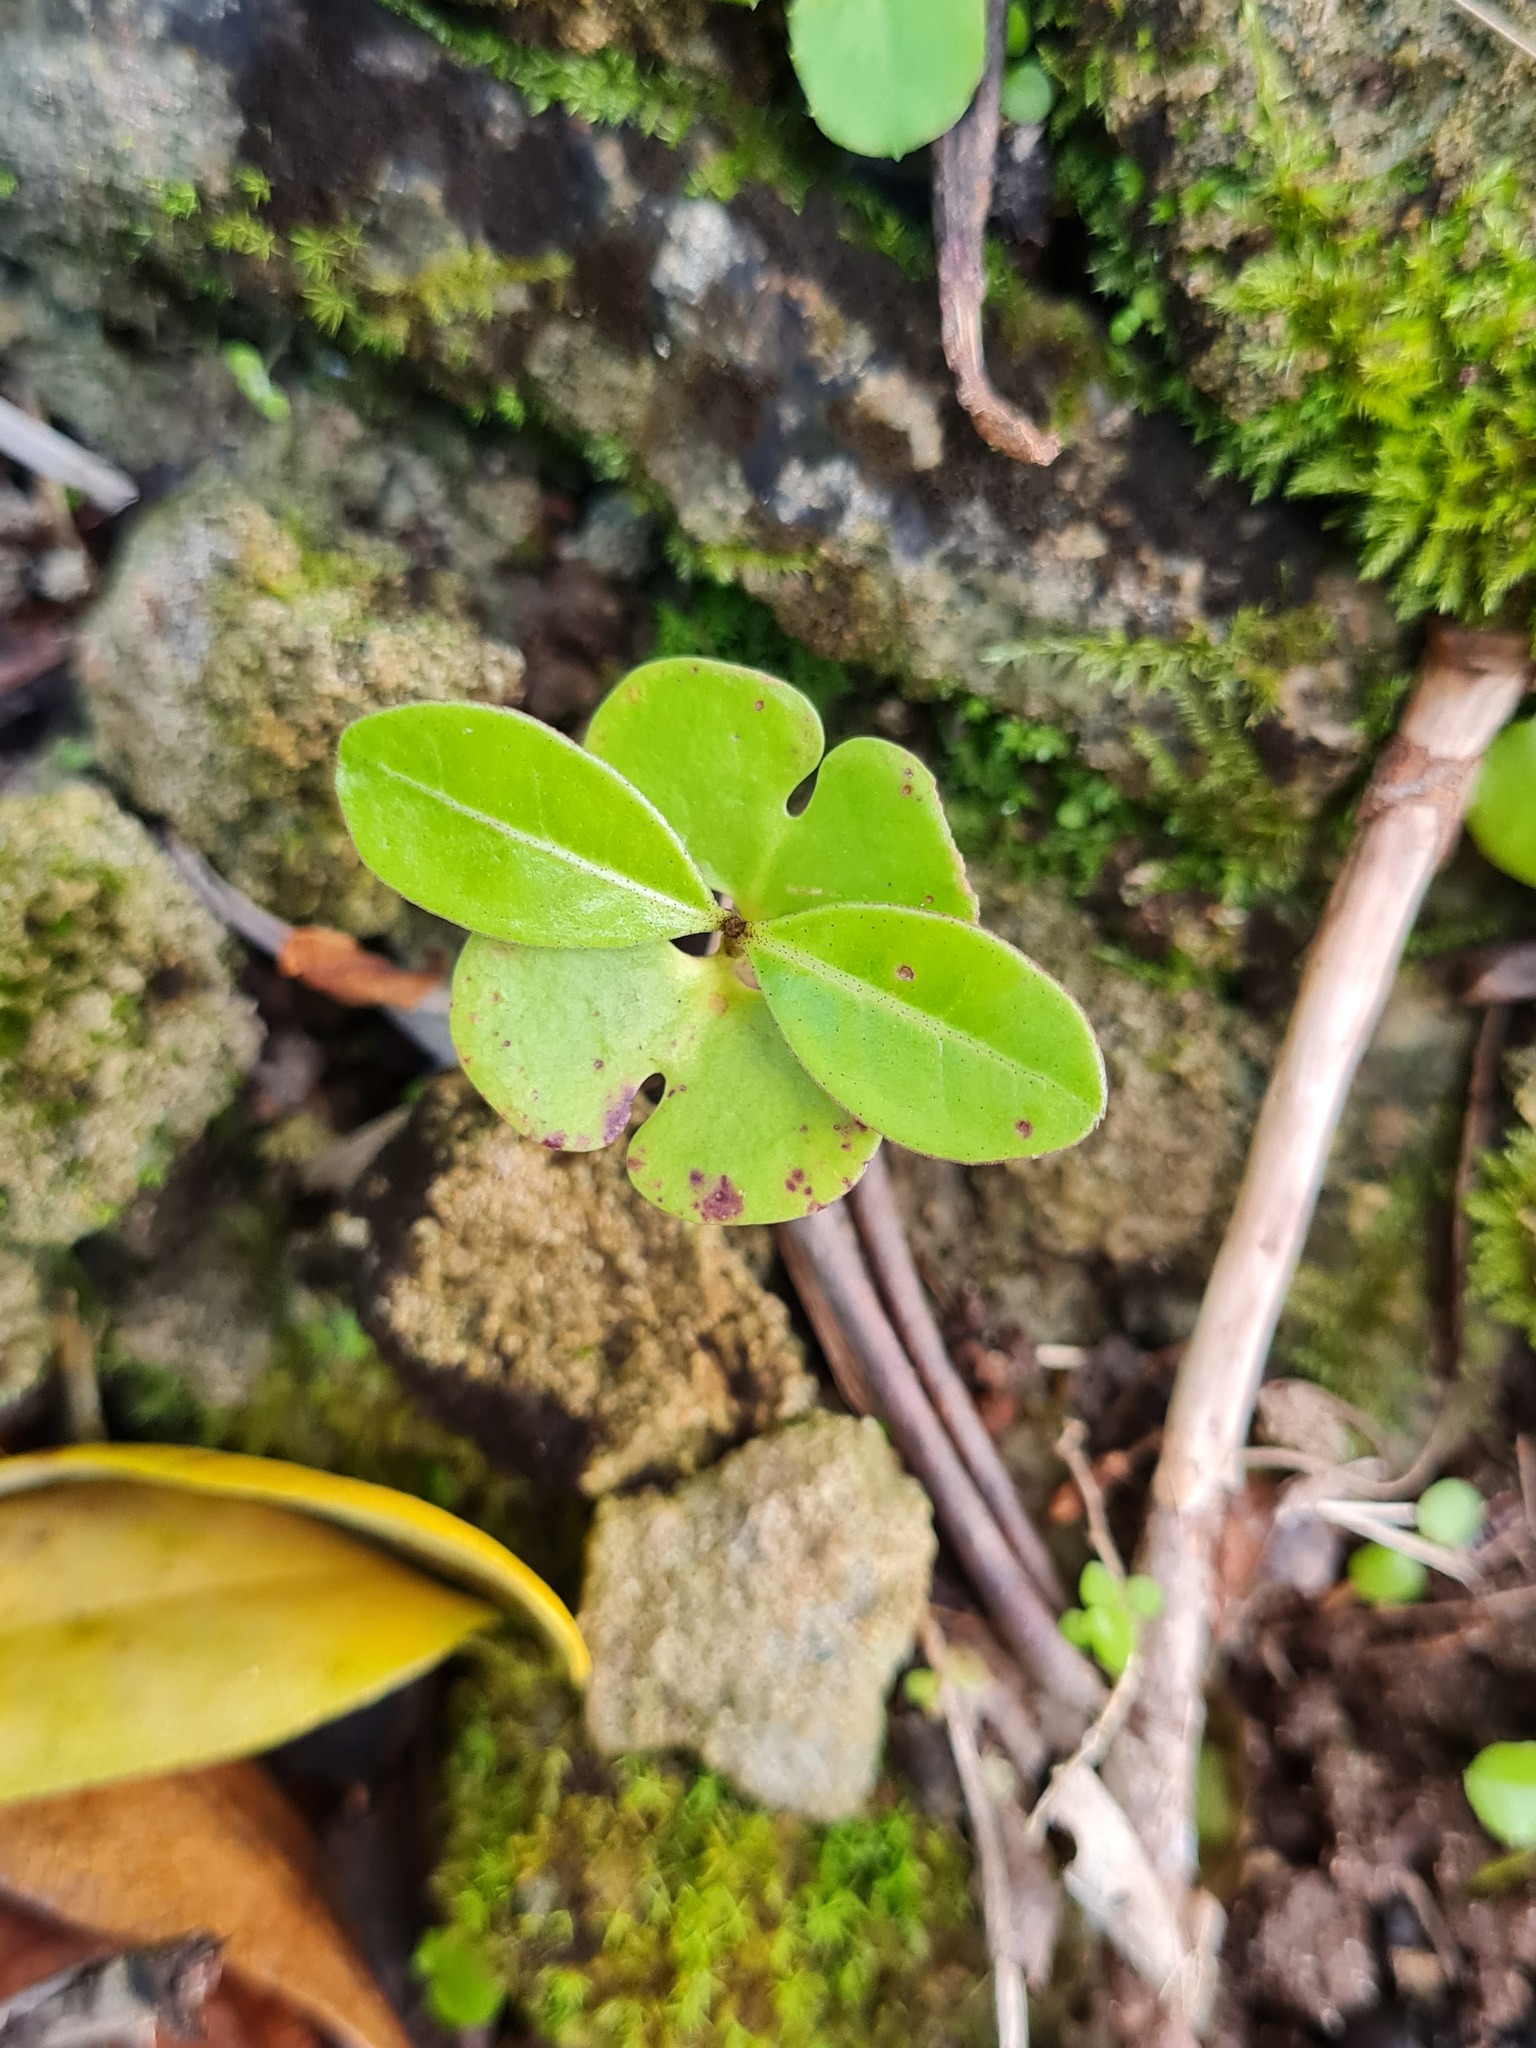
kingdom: Plantae
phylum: Tracheophyta
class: Magnoliopsida
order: Lamiales
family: Bignoniaceae
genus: Tabebuia
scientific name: Tabebuia heterophylla
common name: White cedar
